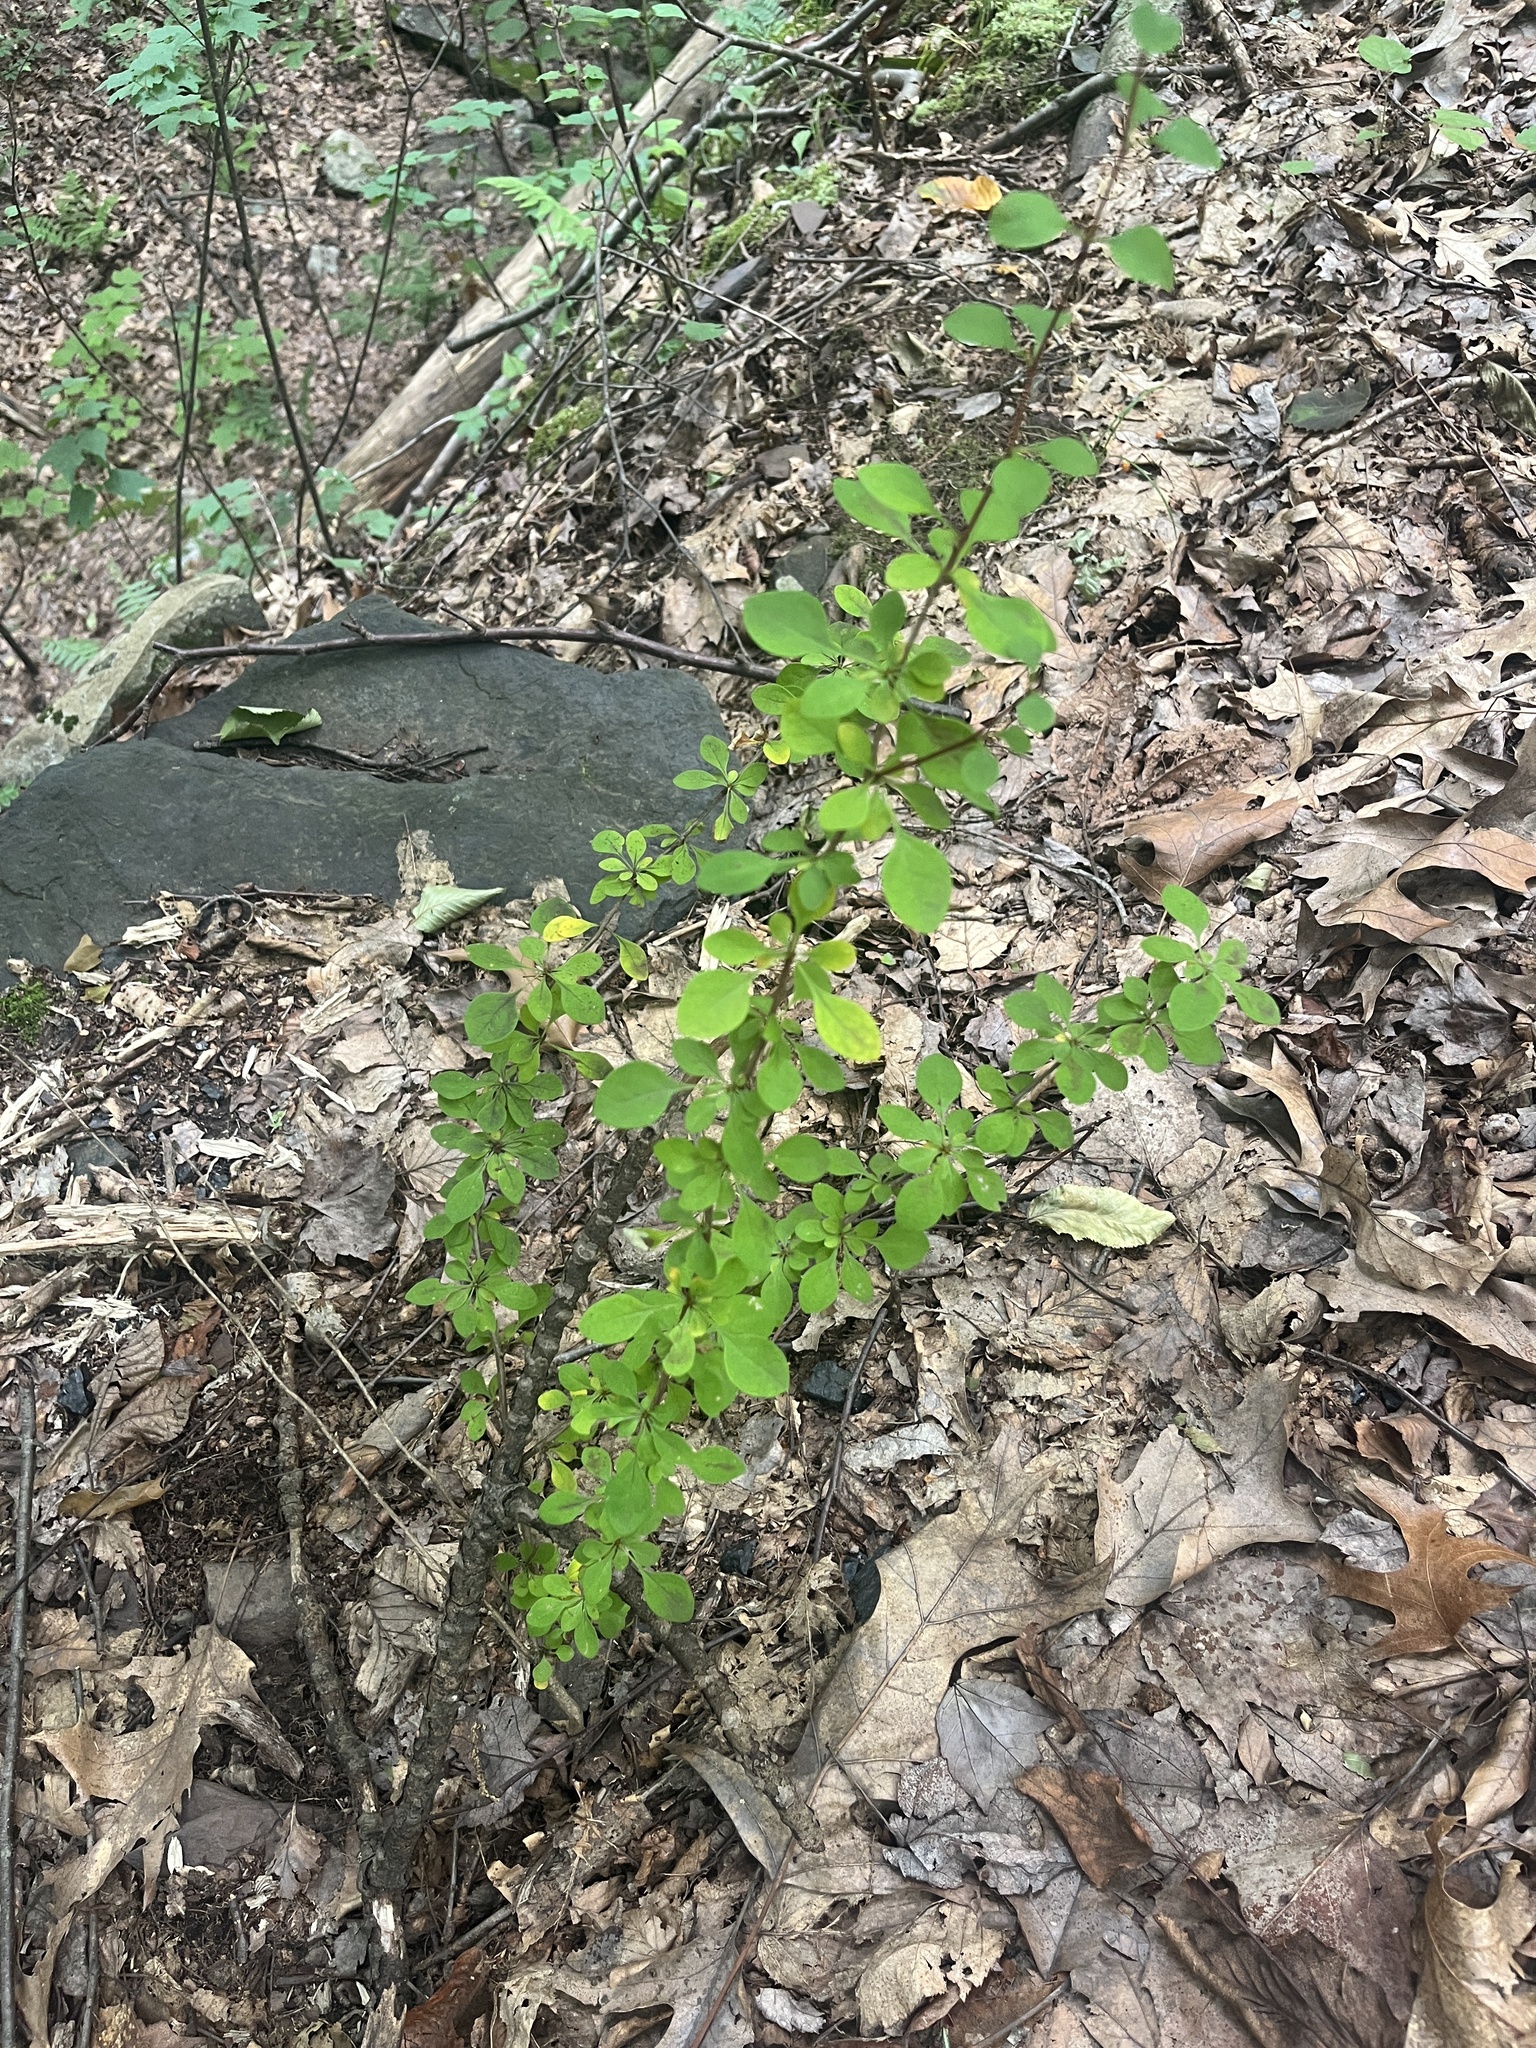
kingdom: Plantae
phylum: Tracheophyta
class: Magnoliopsida
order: Ranunculales
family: Berberidaceae
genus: Berberis
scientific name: Berberis thunbergii
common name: Japanese barberry
